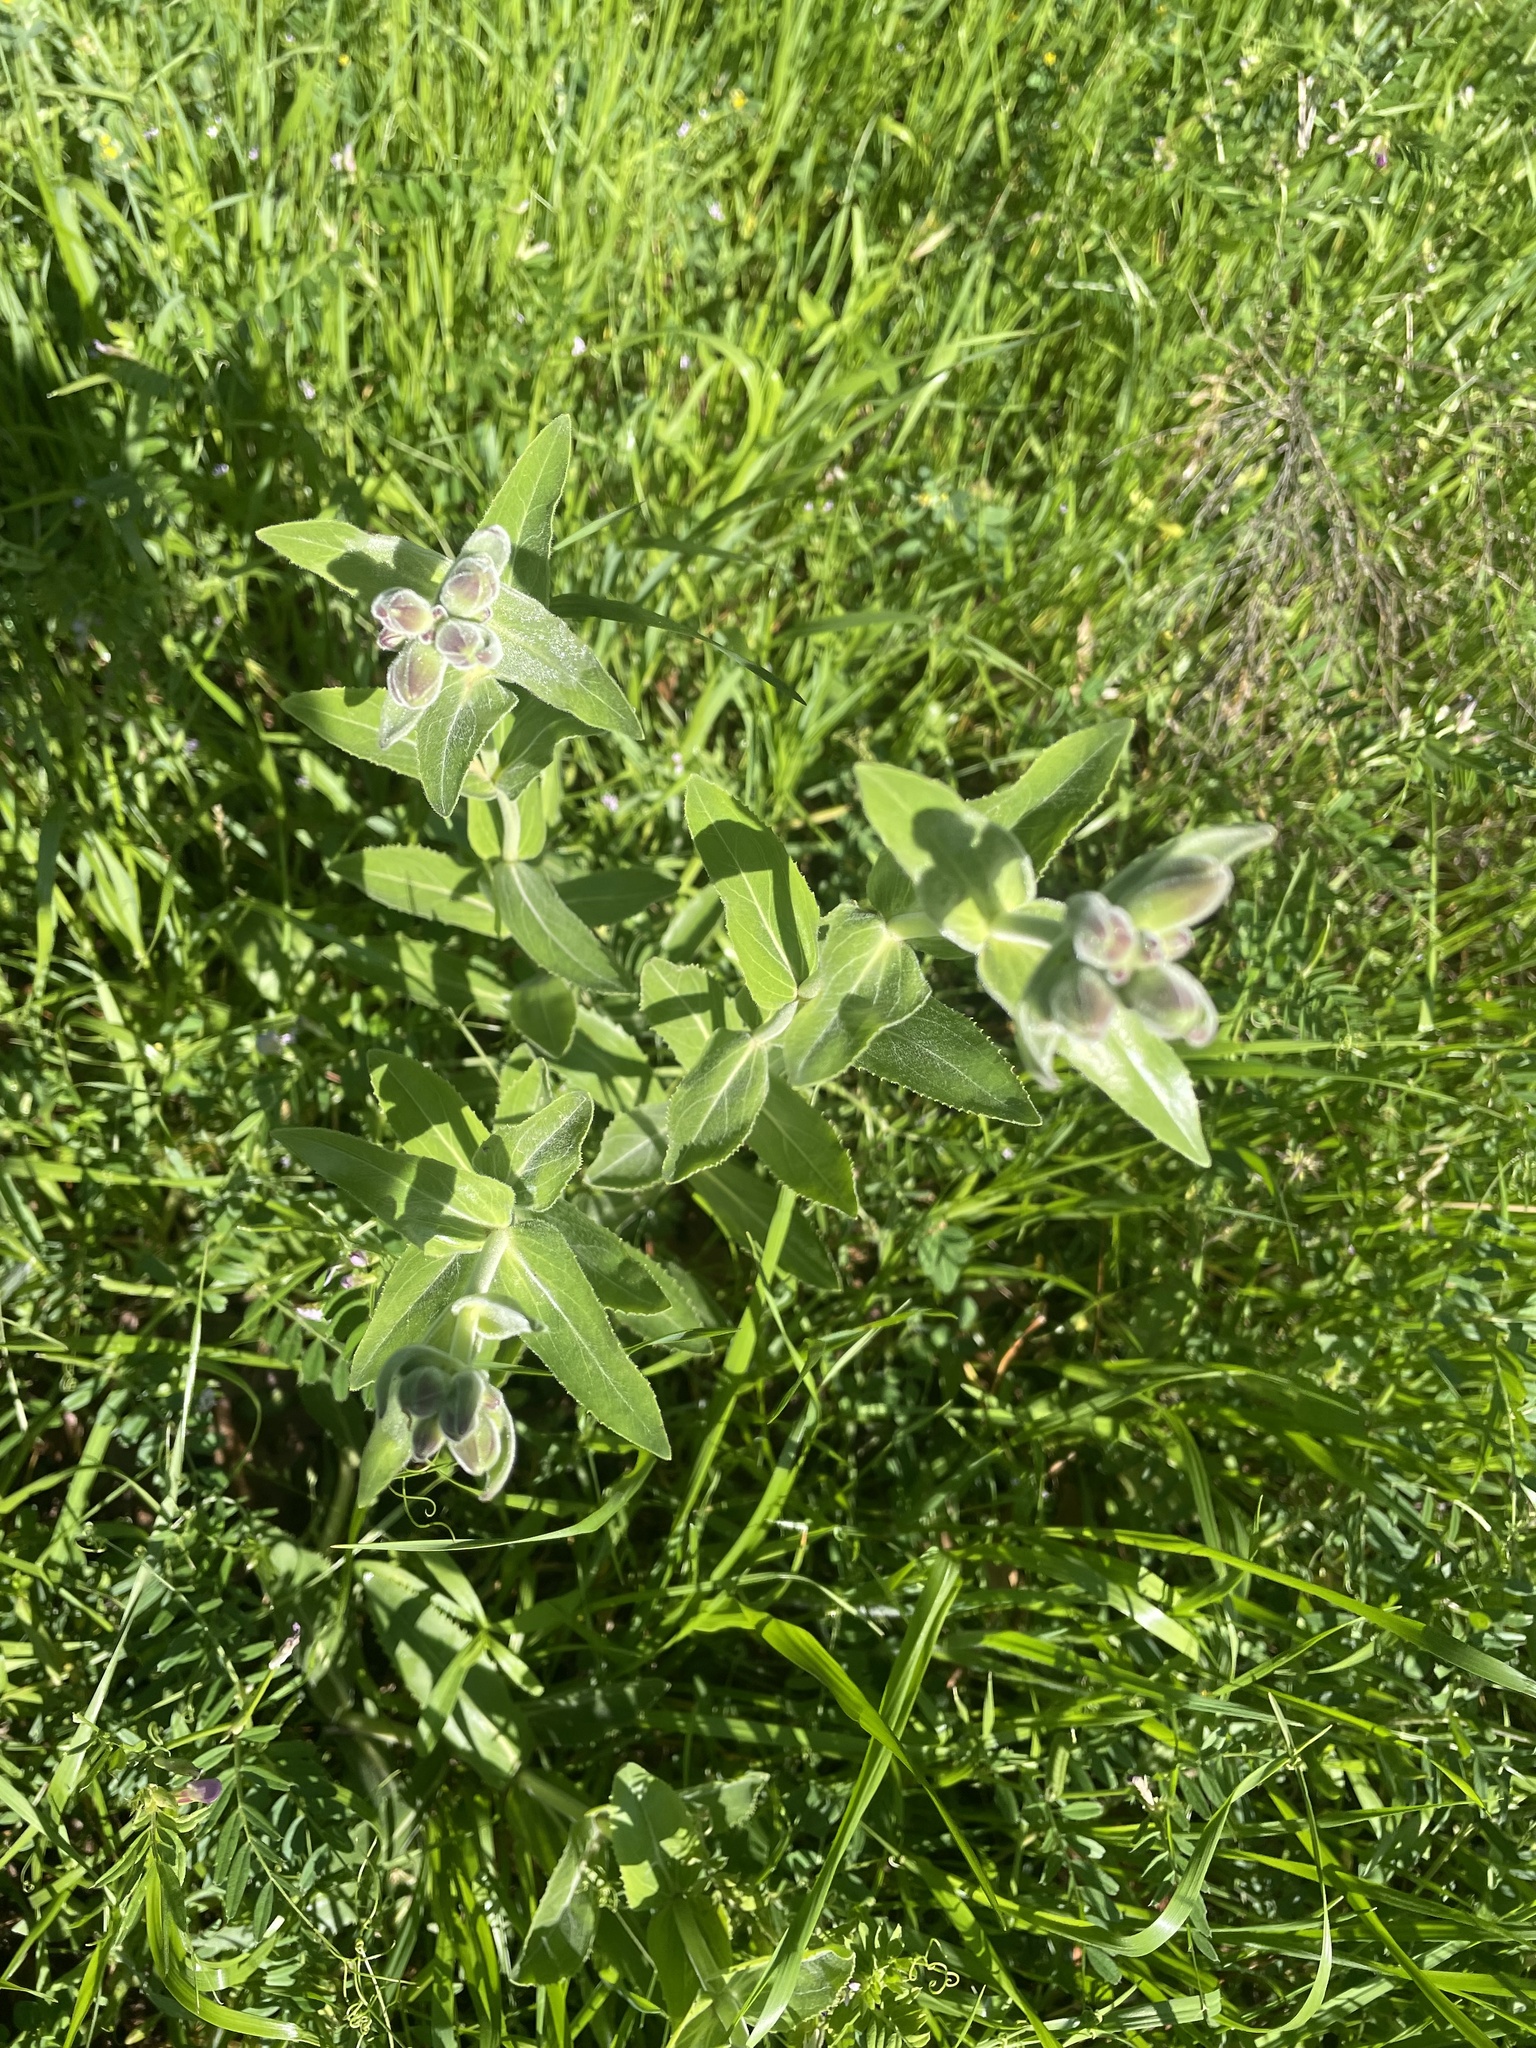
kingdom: Plantae
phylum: Tracheophyta
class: Magnoliopsida
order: Lamiales
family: Plantaginaceae
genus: Penstemon
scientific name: Penstemon cobaea
